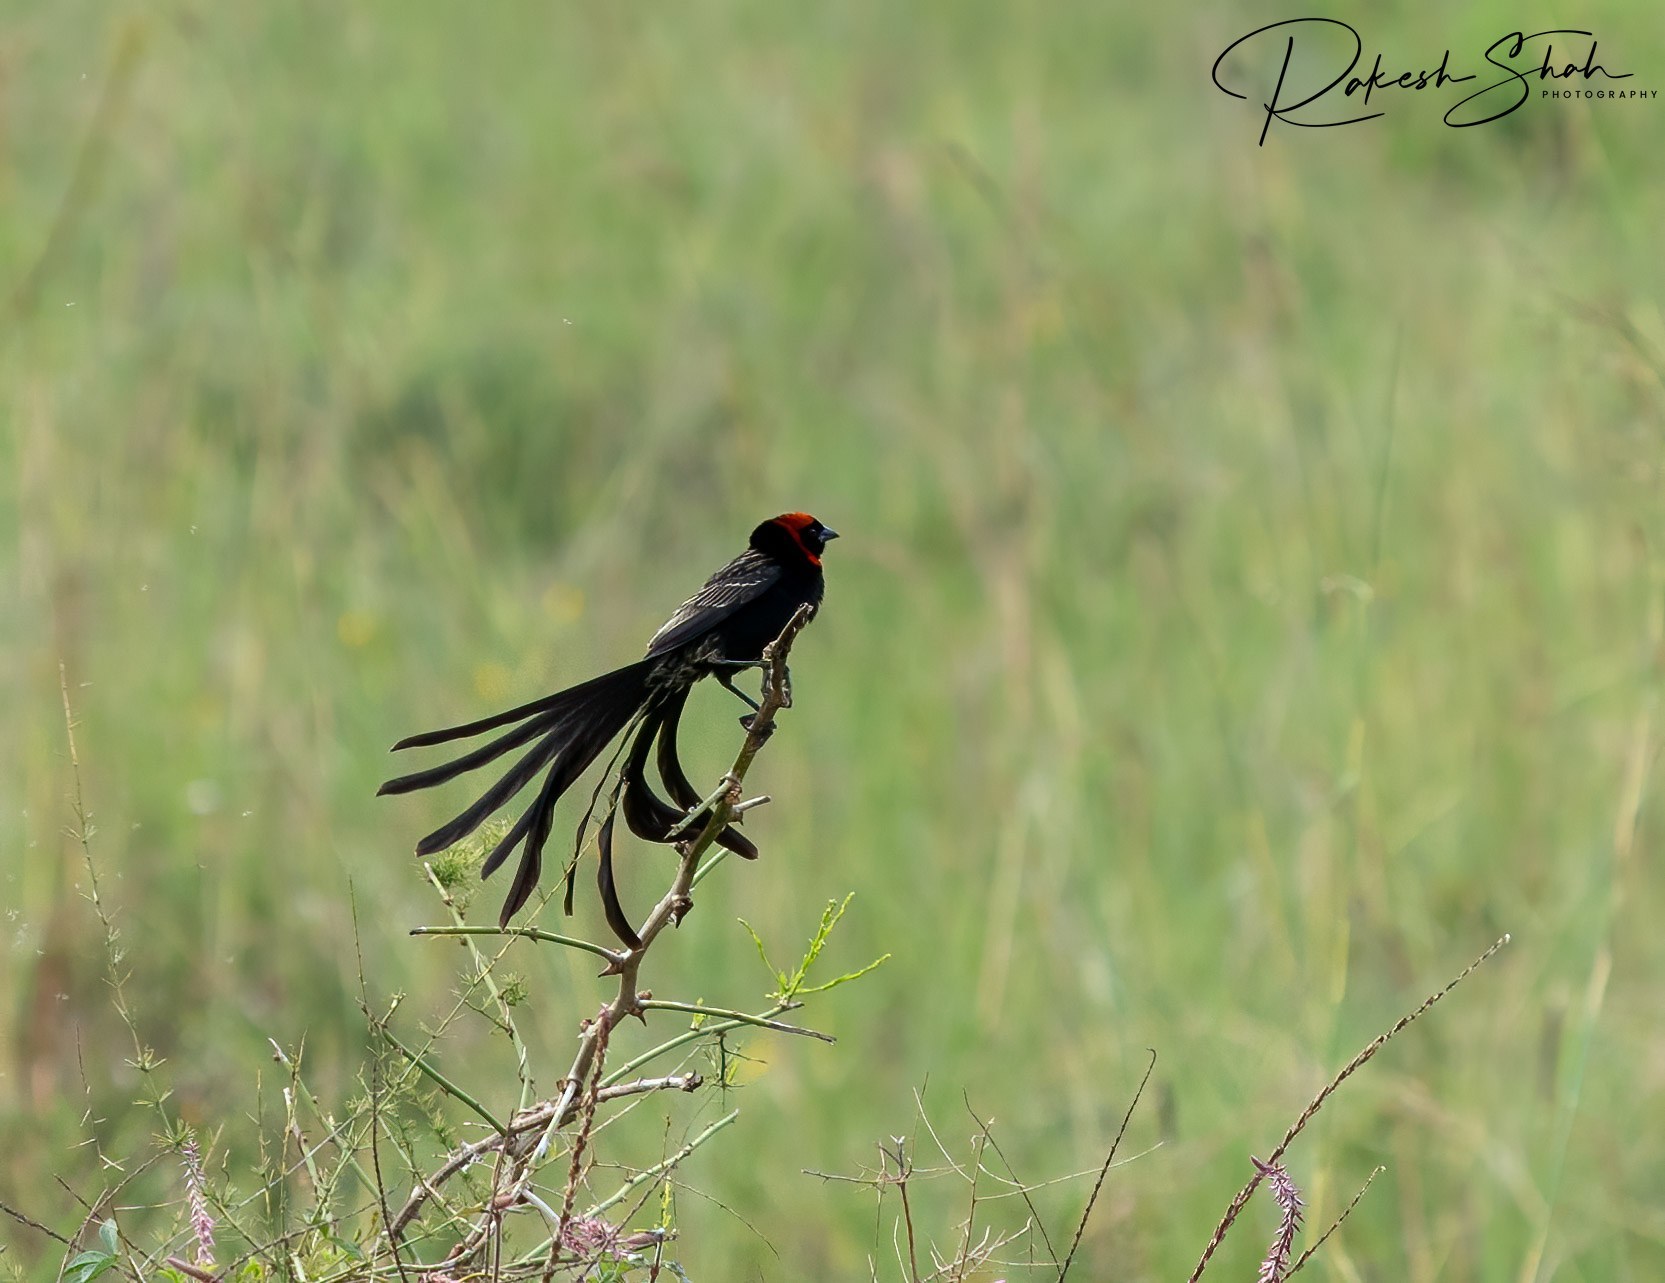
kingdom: Animalia
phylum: Chordata
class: Aves
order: Passeriformes
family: Ploceidae
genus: Euplectes
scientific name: Euplectes ardens
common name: Red-collared widowbird
